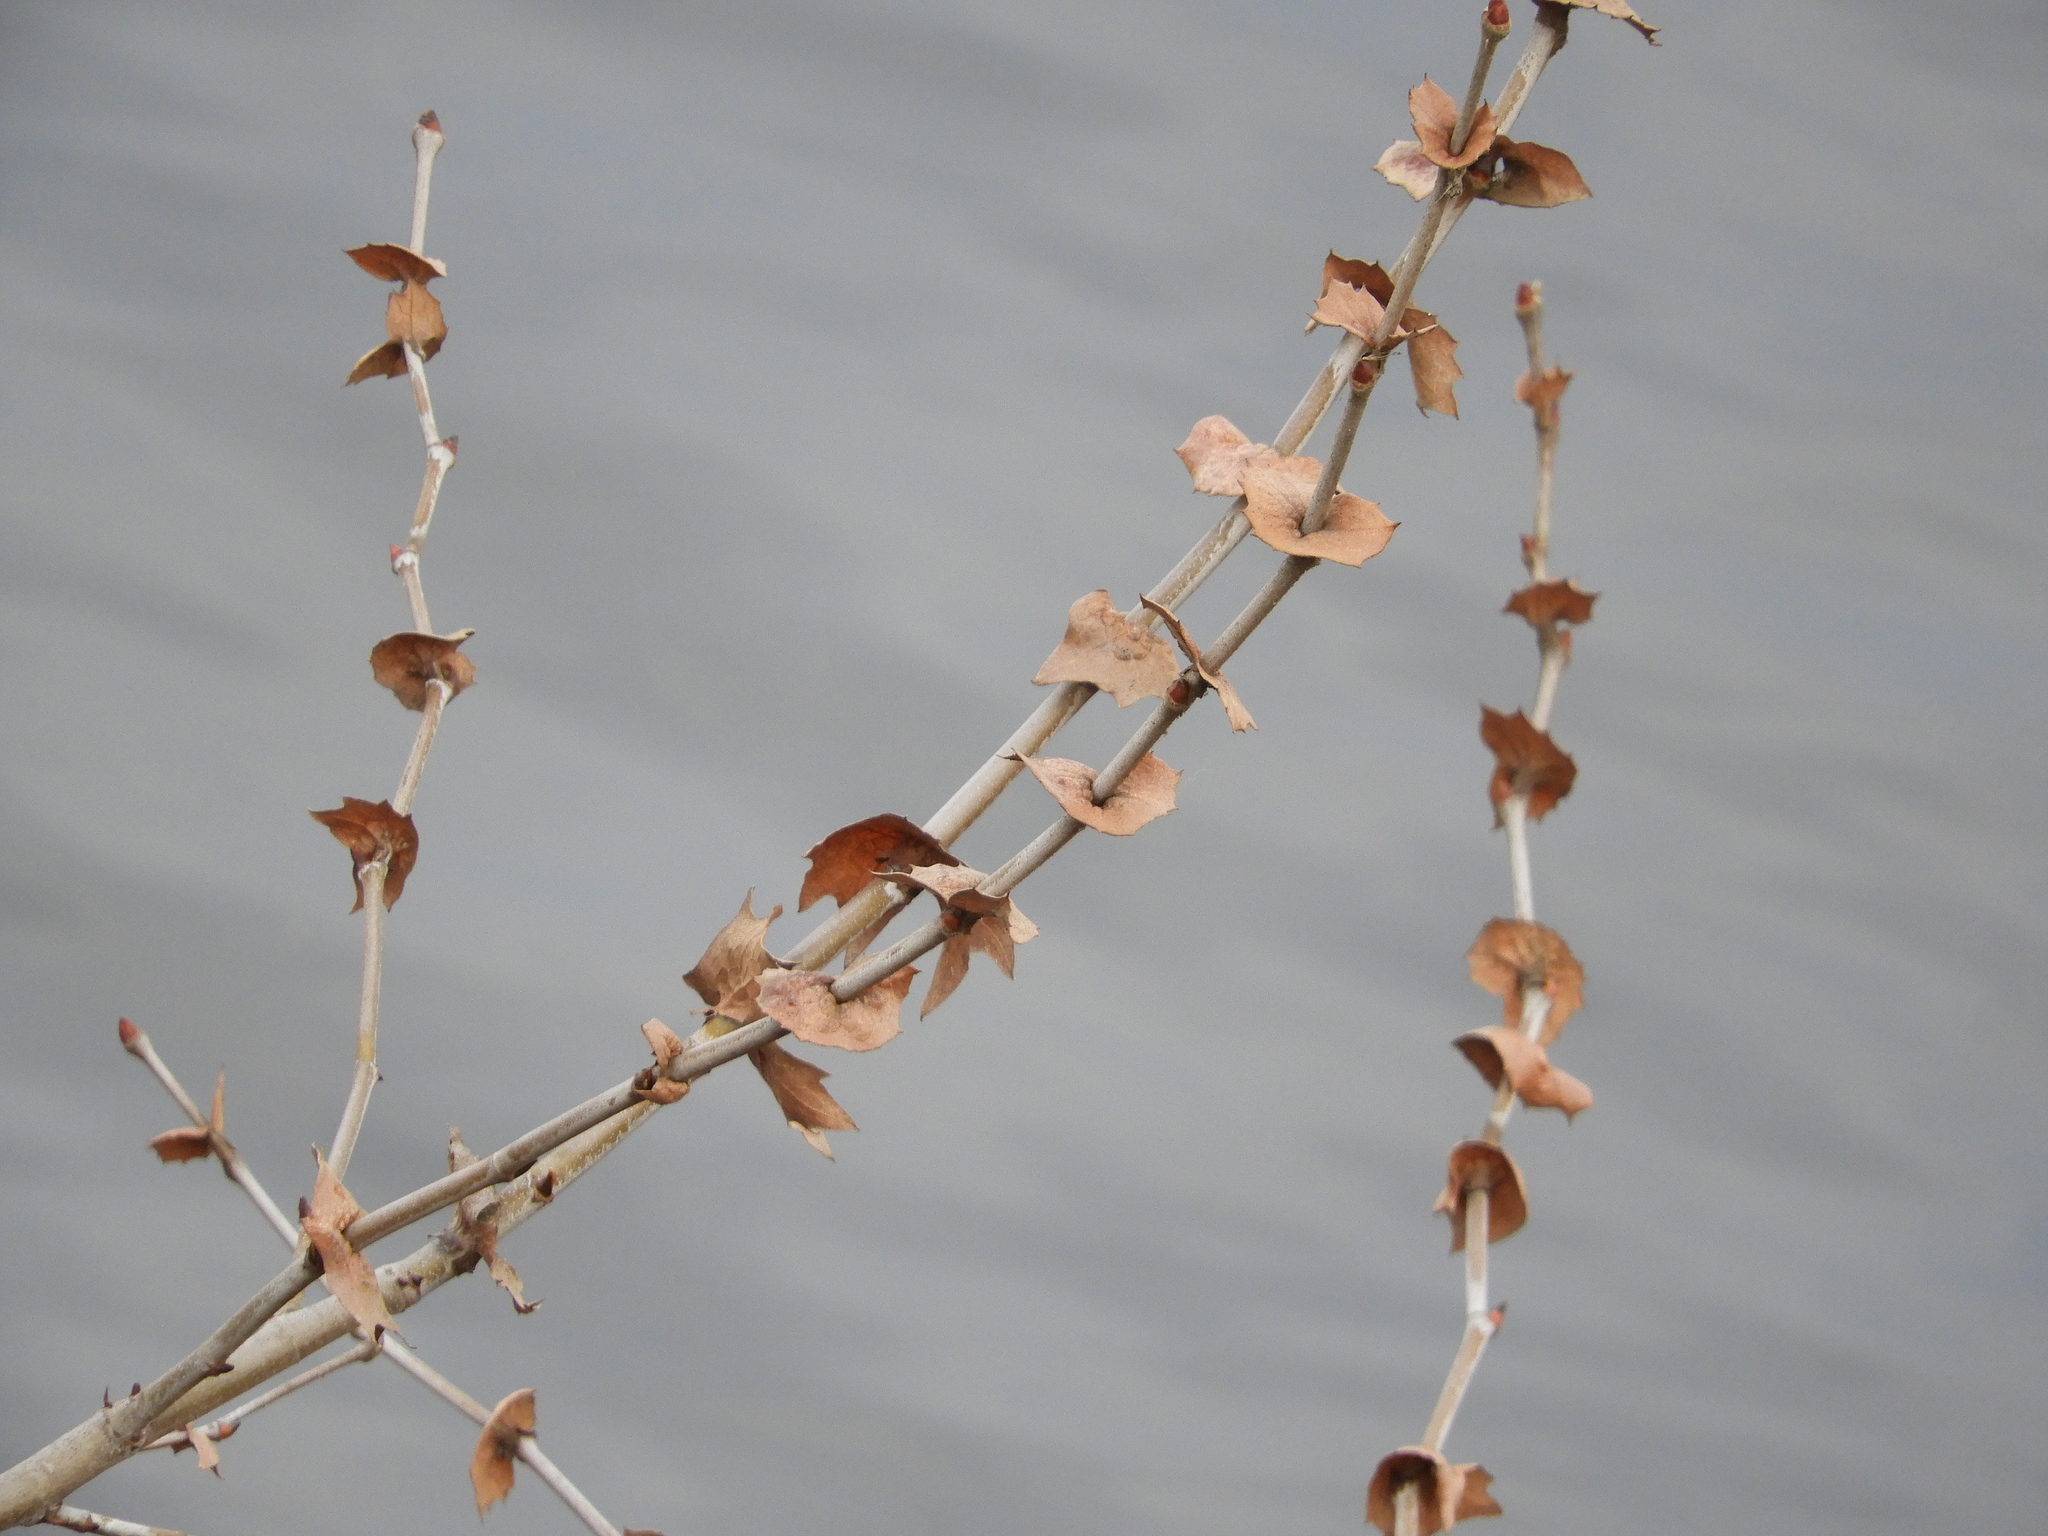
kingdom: Plantae
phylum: Tracheophyta
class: Magnoliopsida
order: Proteales
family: Platanaceae
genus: Platanus
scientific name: Platanus racemosa
